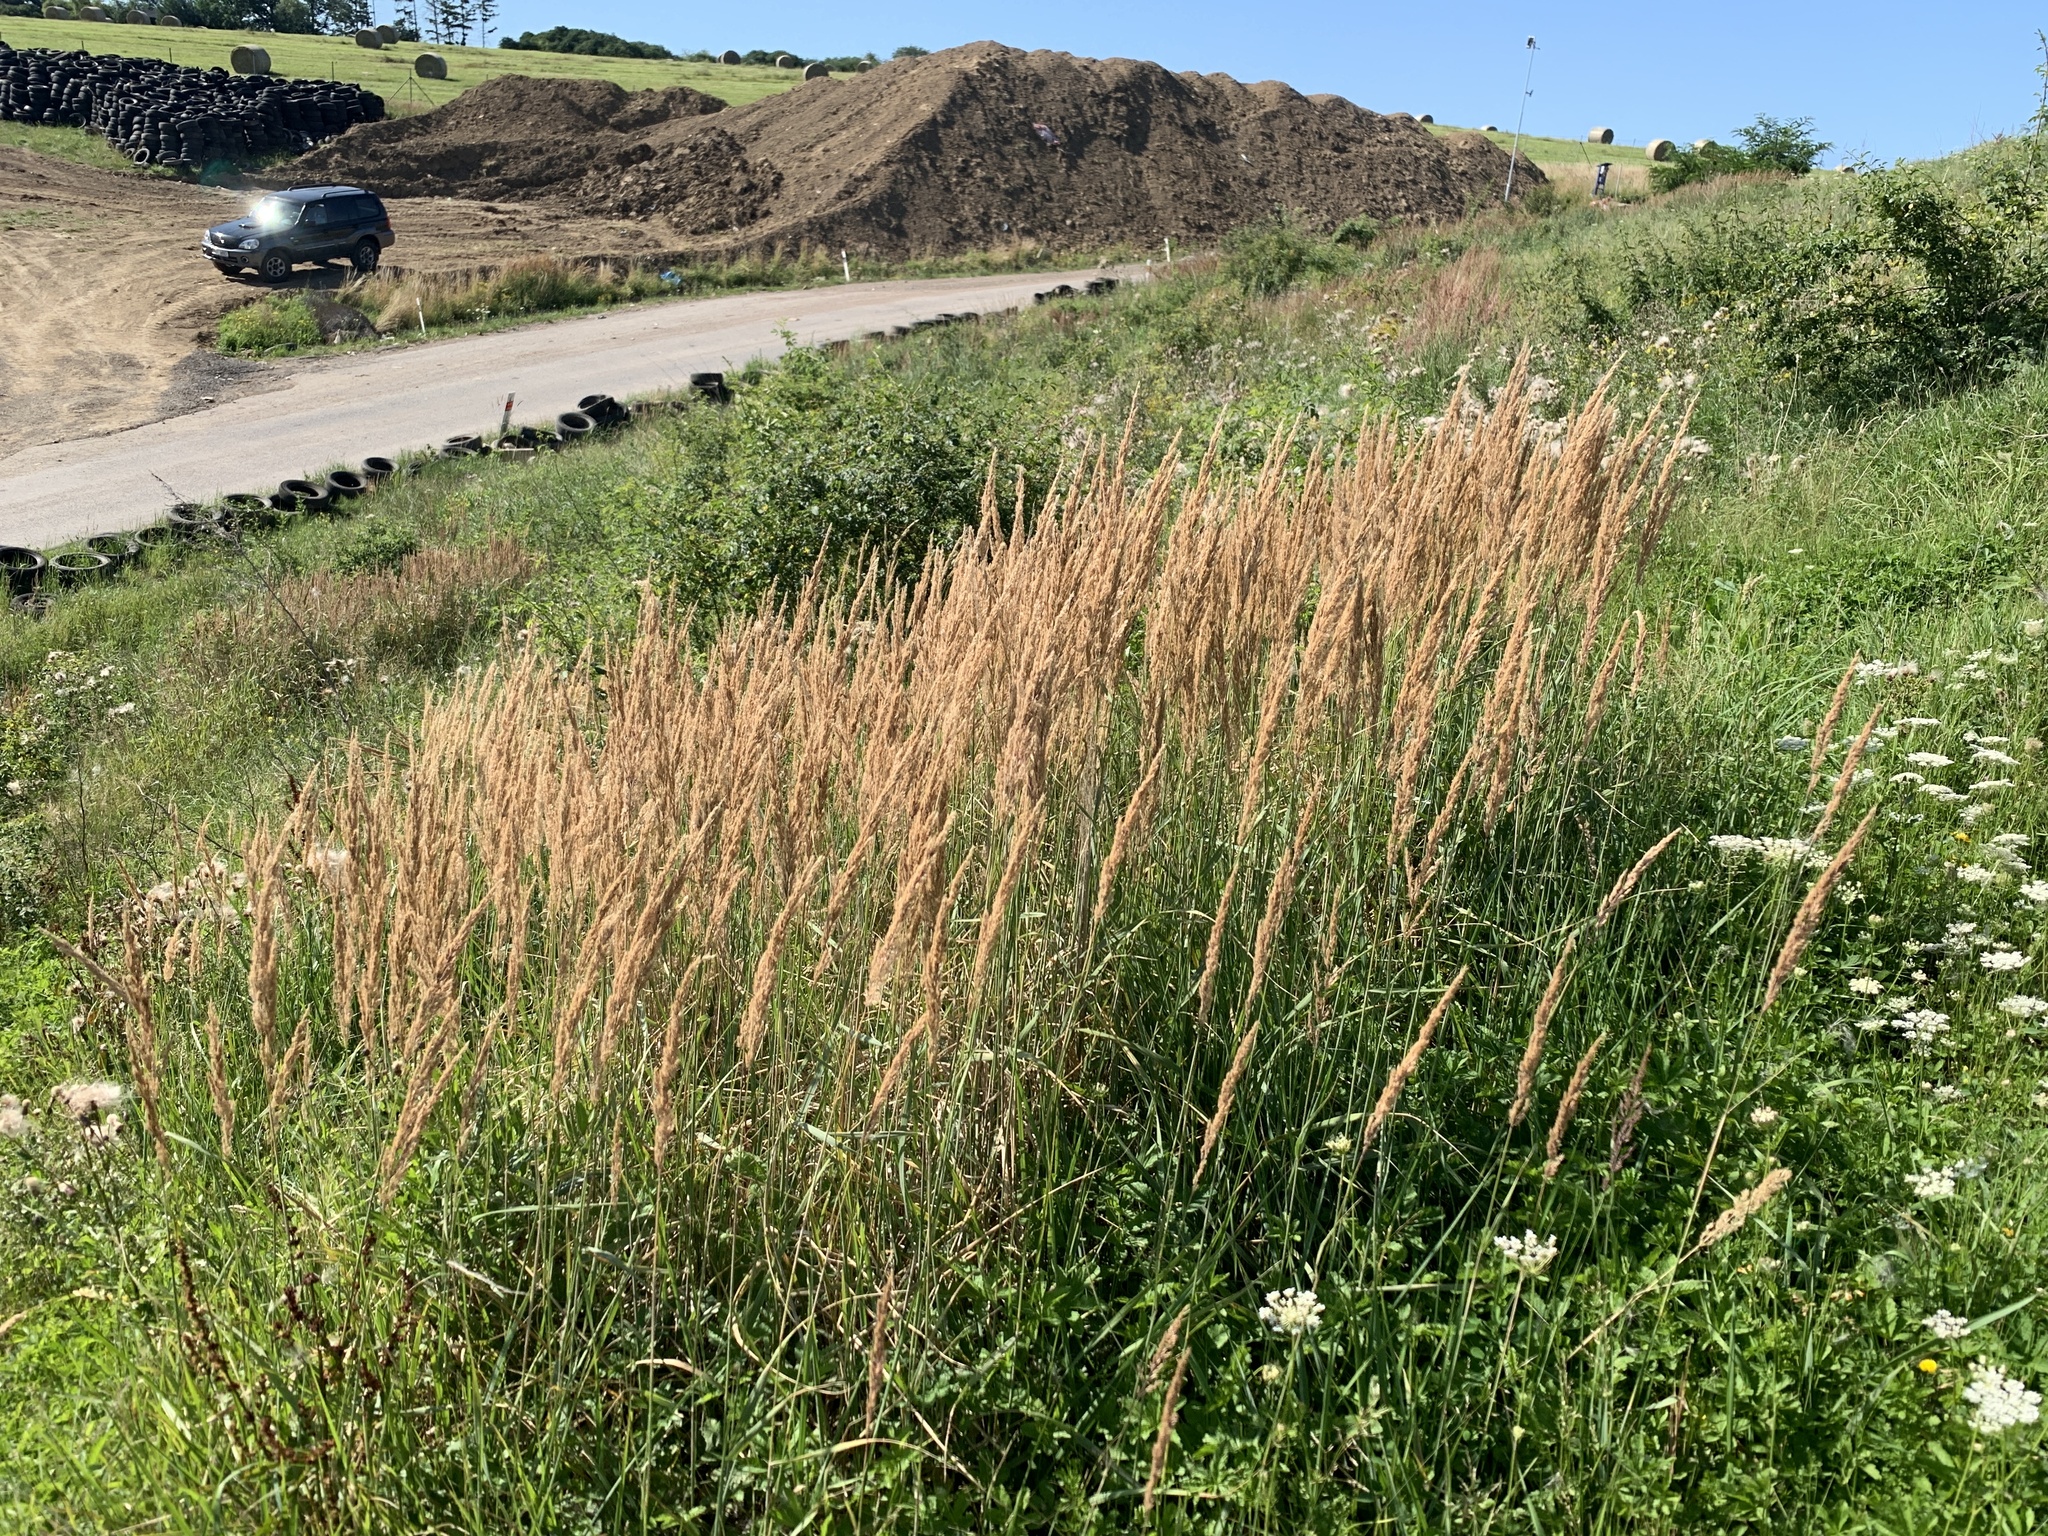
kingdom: Plantae
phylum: Tracheophyta
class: Liliopsida
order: Poales
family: Poaceae
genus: Calamagrostis
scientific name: Calamagrostis epigejos
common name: Wood small-reed
